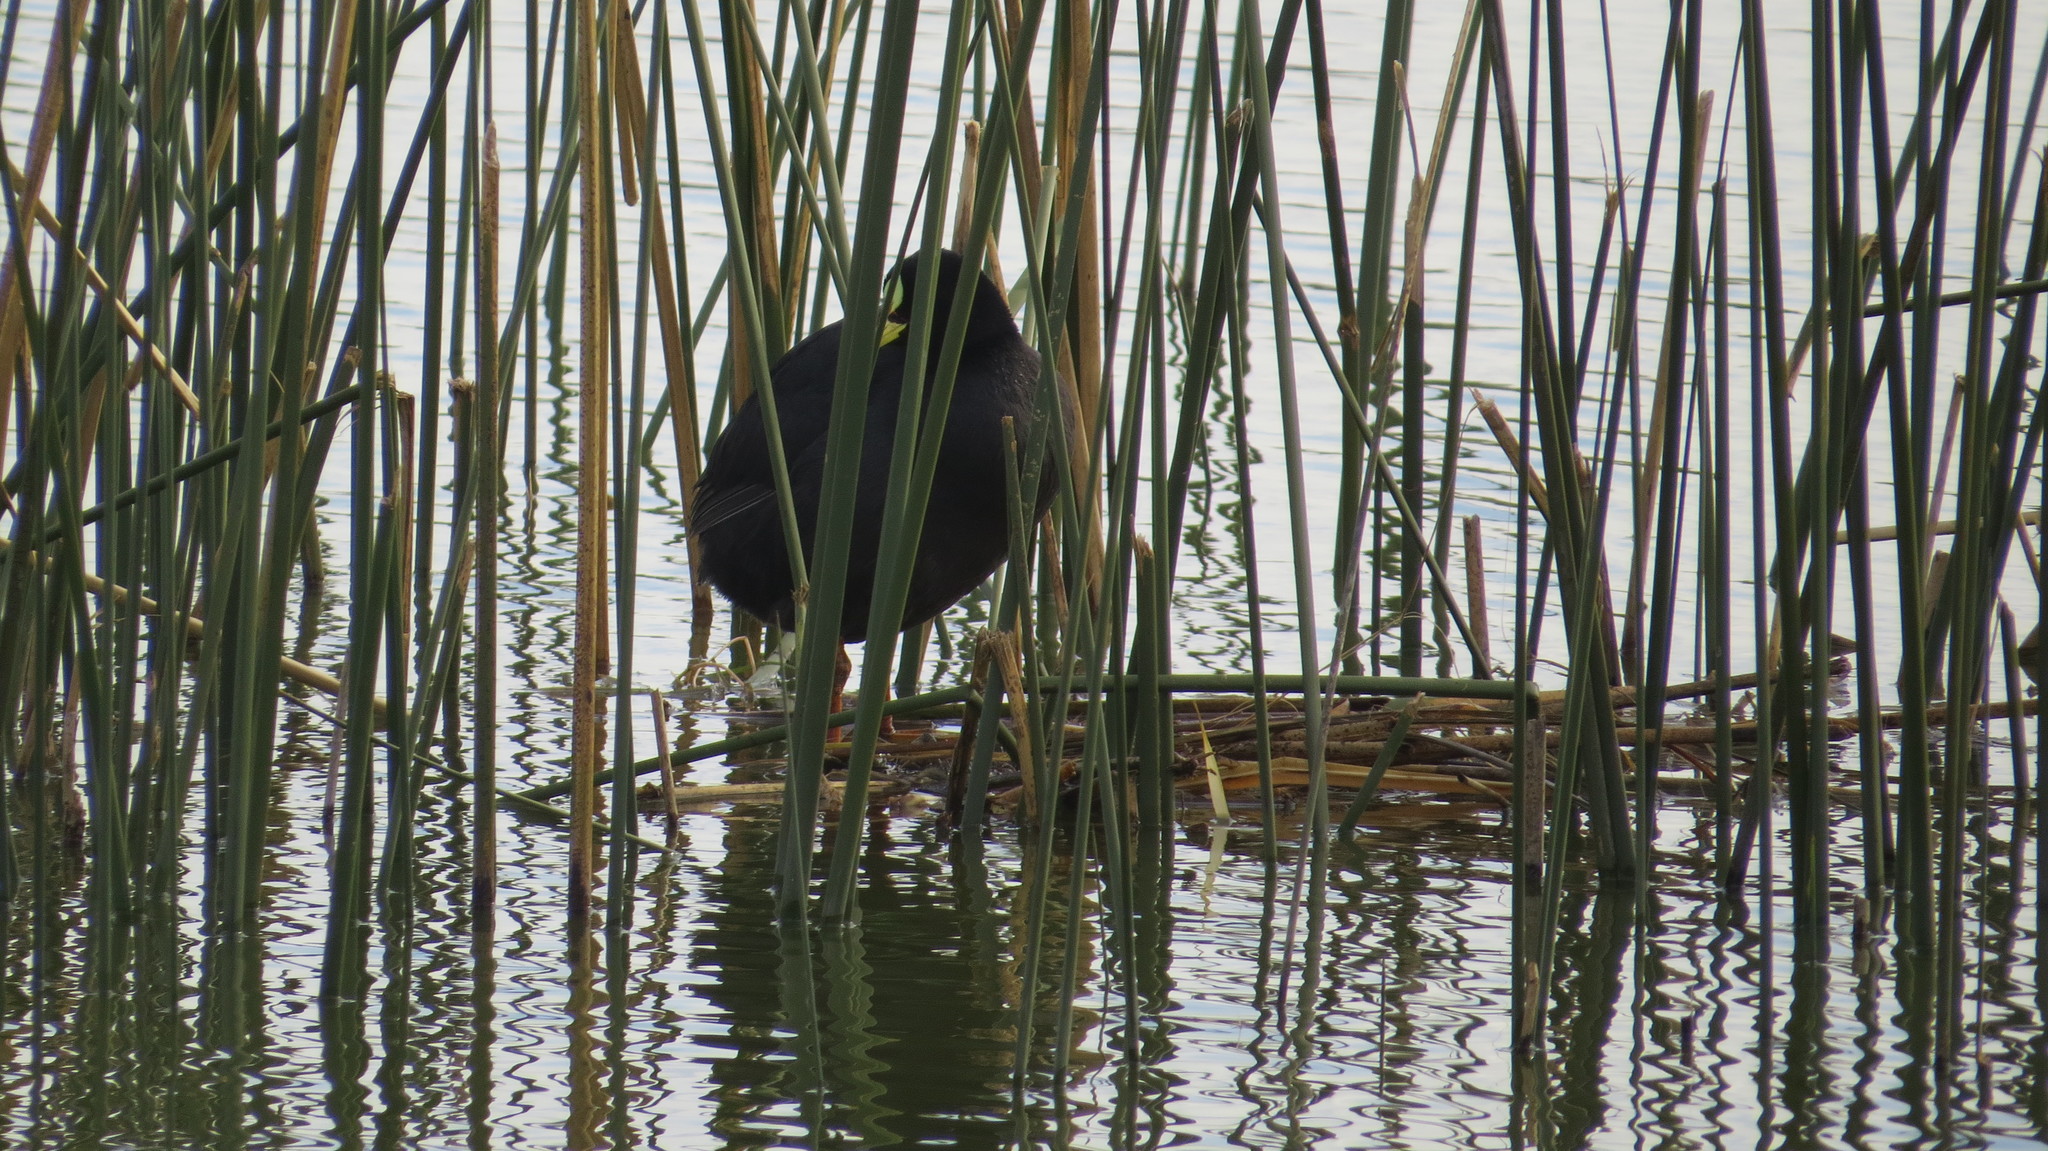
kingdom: Animalia
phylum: Chordata
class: Aves
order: Gruiformes
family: Rallidae
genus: Fulica
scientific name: Fulica armillata
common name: Red-gartered coot
